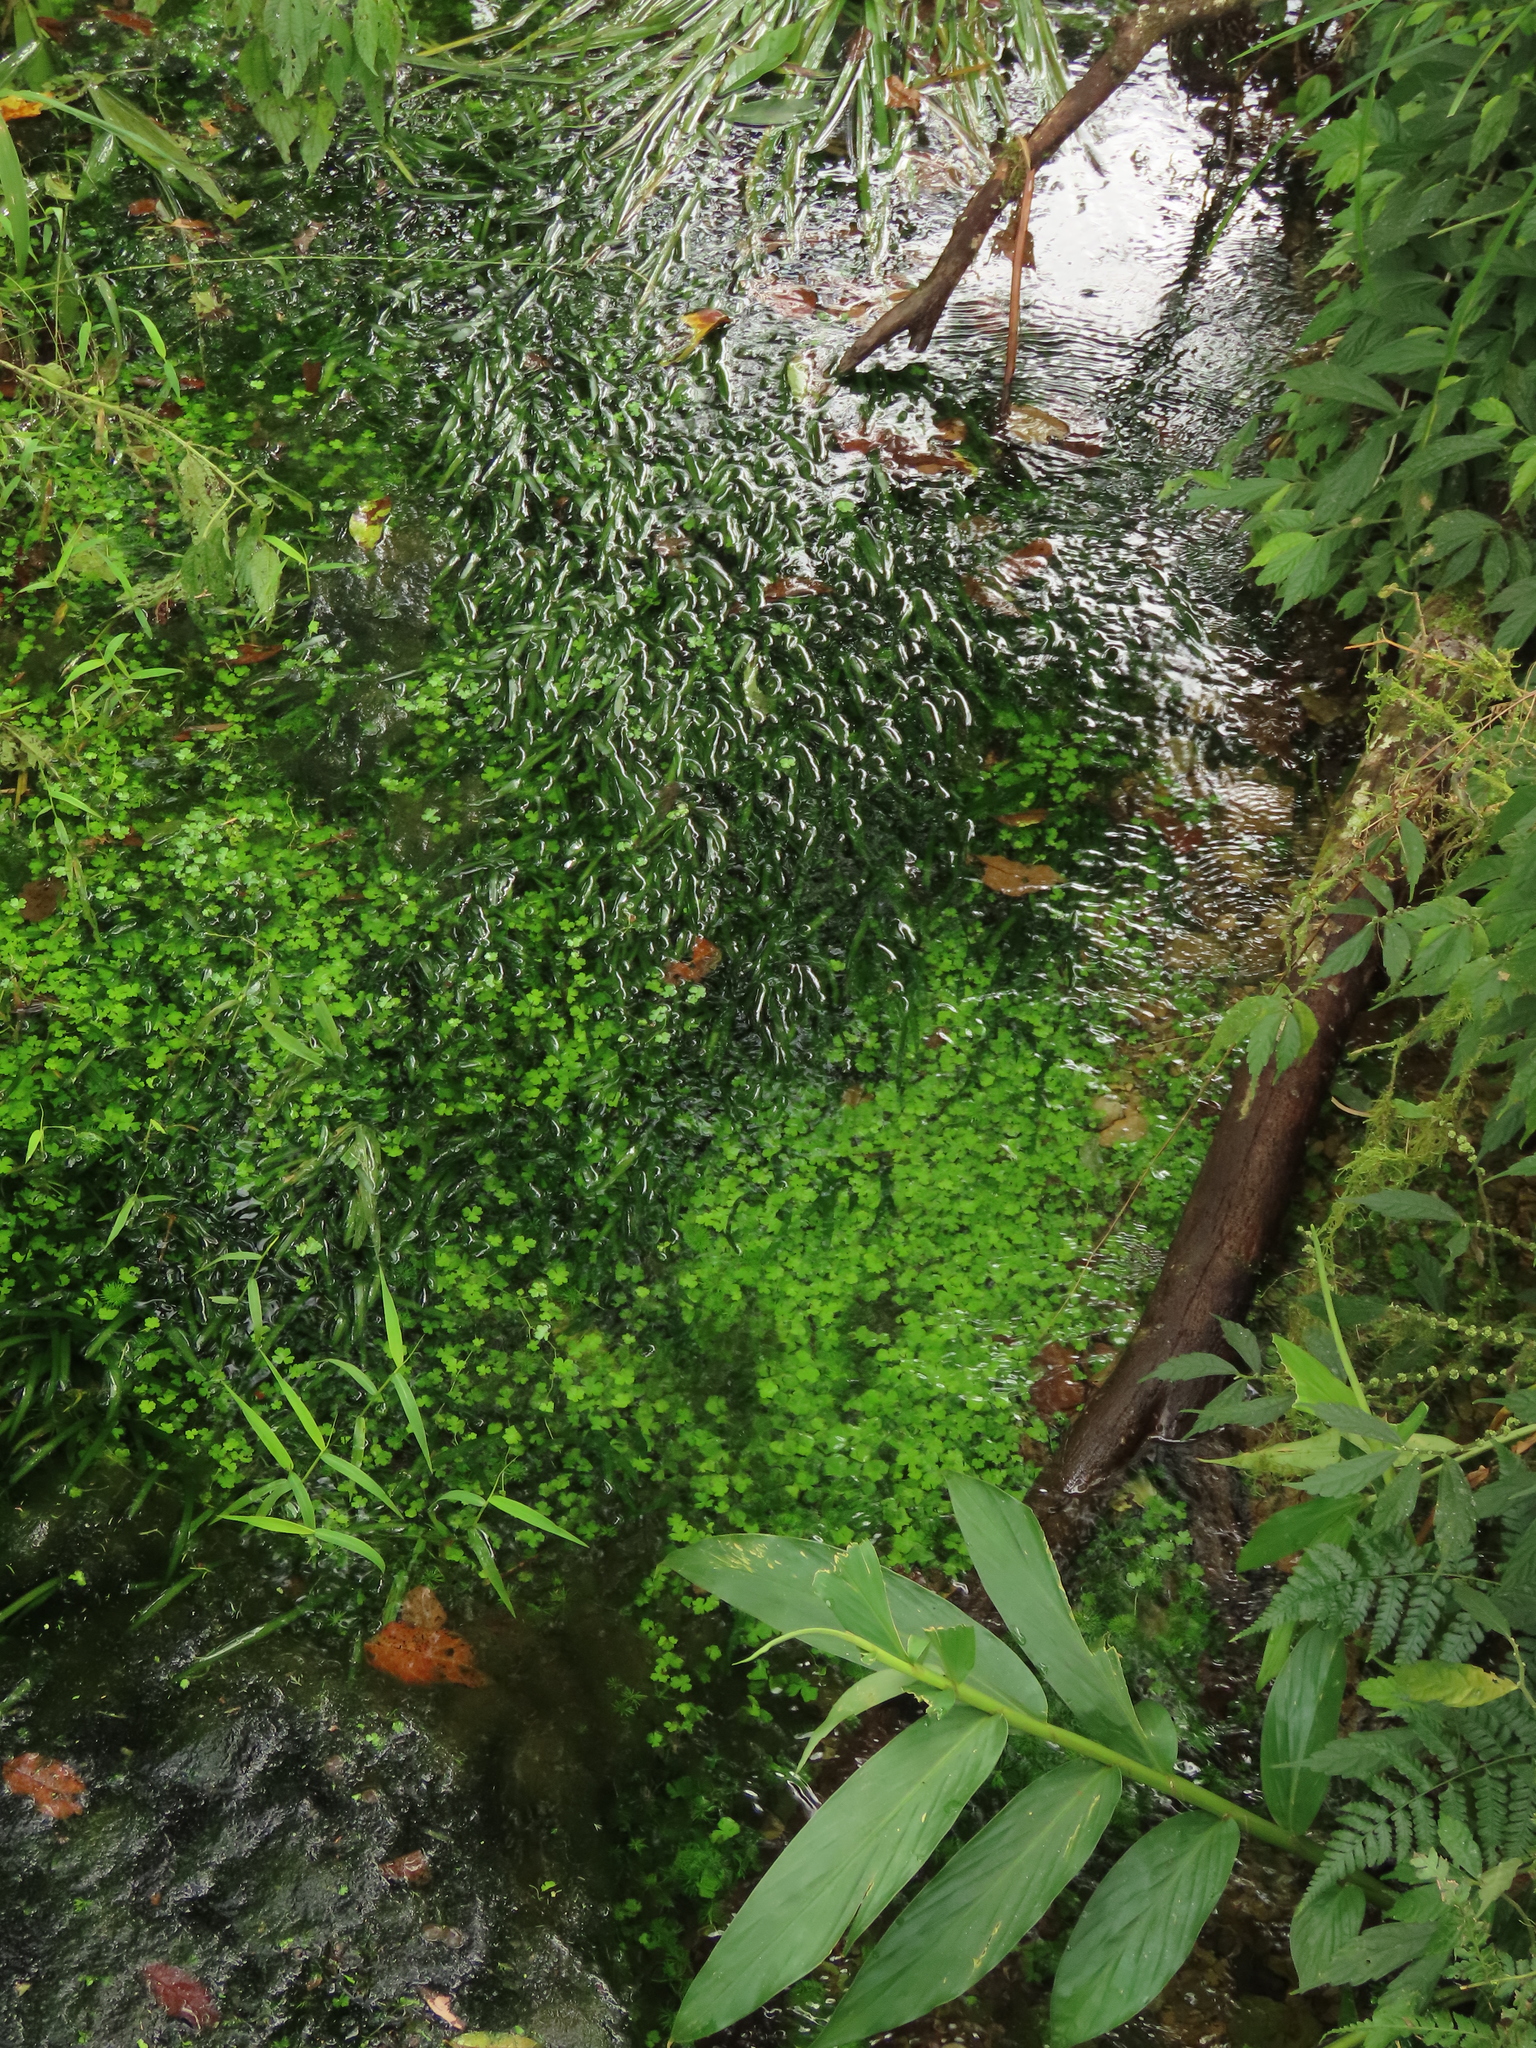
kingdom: Plantae
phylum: Tracheophyta
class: Magnoliopsida
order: Apiales
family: Araliaceae
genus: Hydrocotyle
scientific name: Hydrocotyle batrachium
